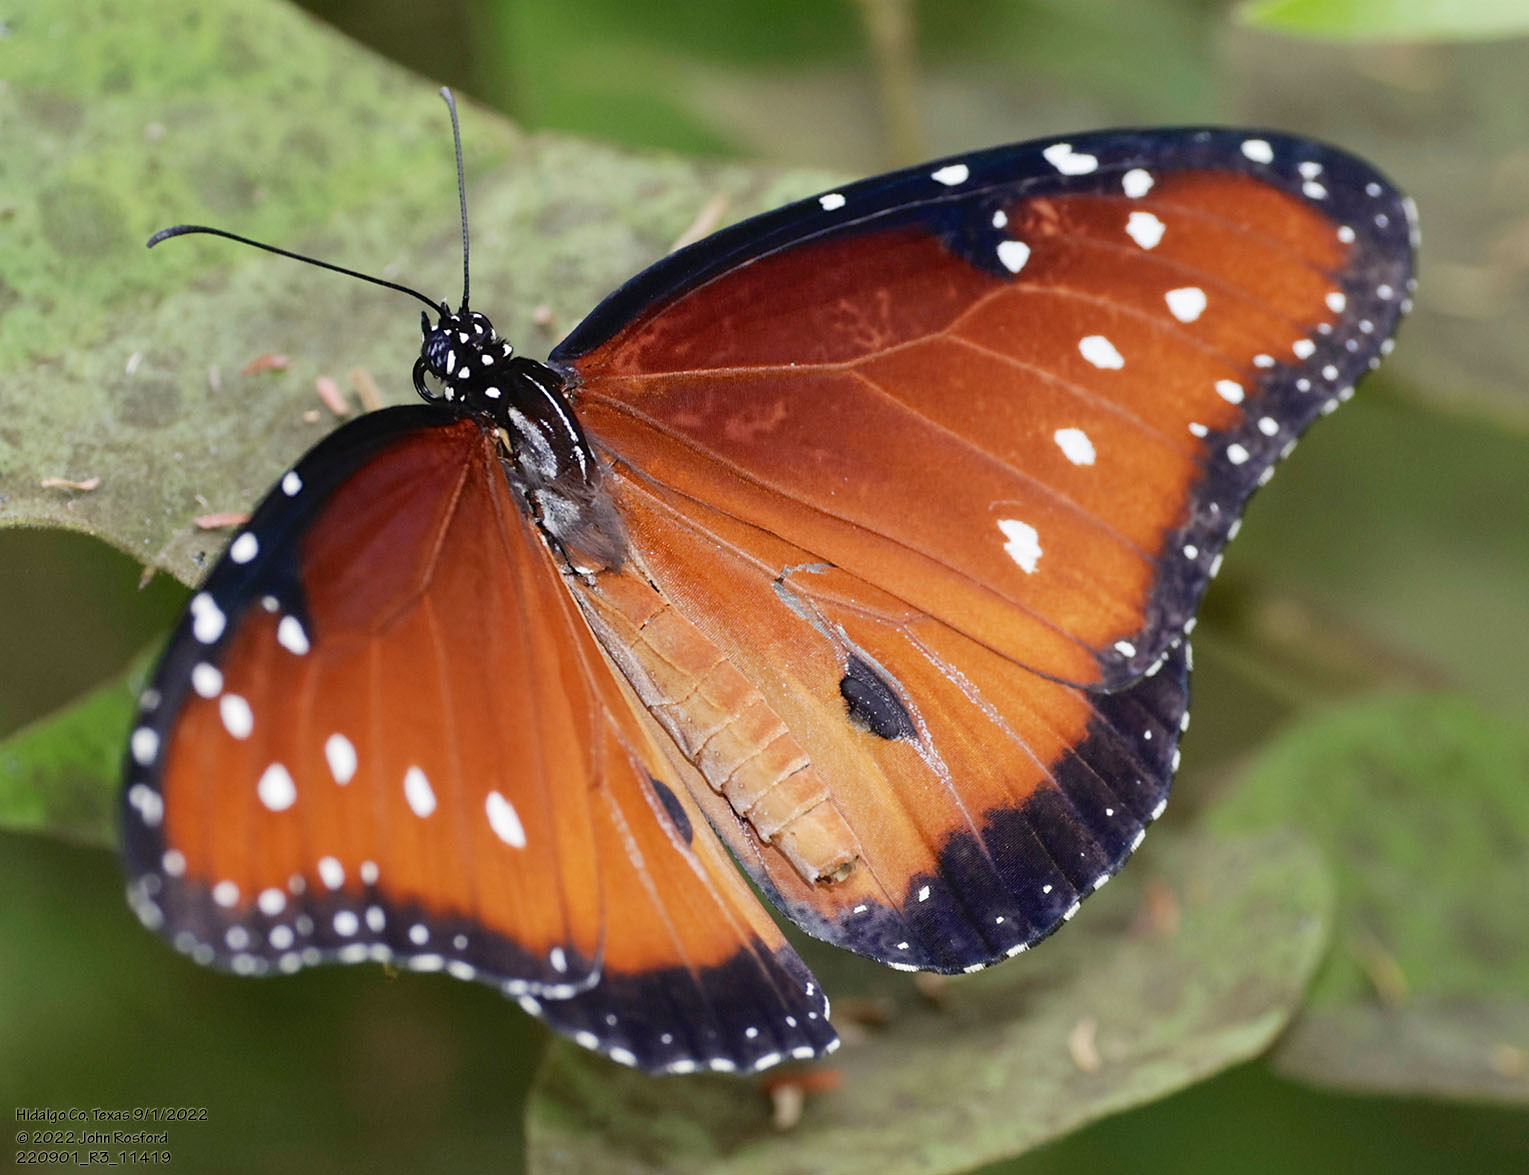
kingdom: Animalia
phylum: Arthropoda
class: Insecta
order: Lepidoptera
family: Nymphalidae
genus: Danaus
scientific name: Danaus gilippus
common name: Queen
